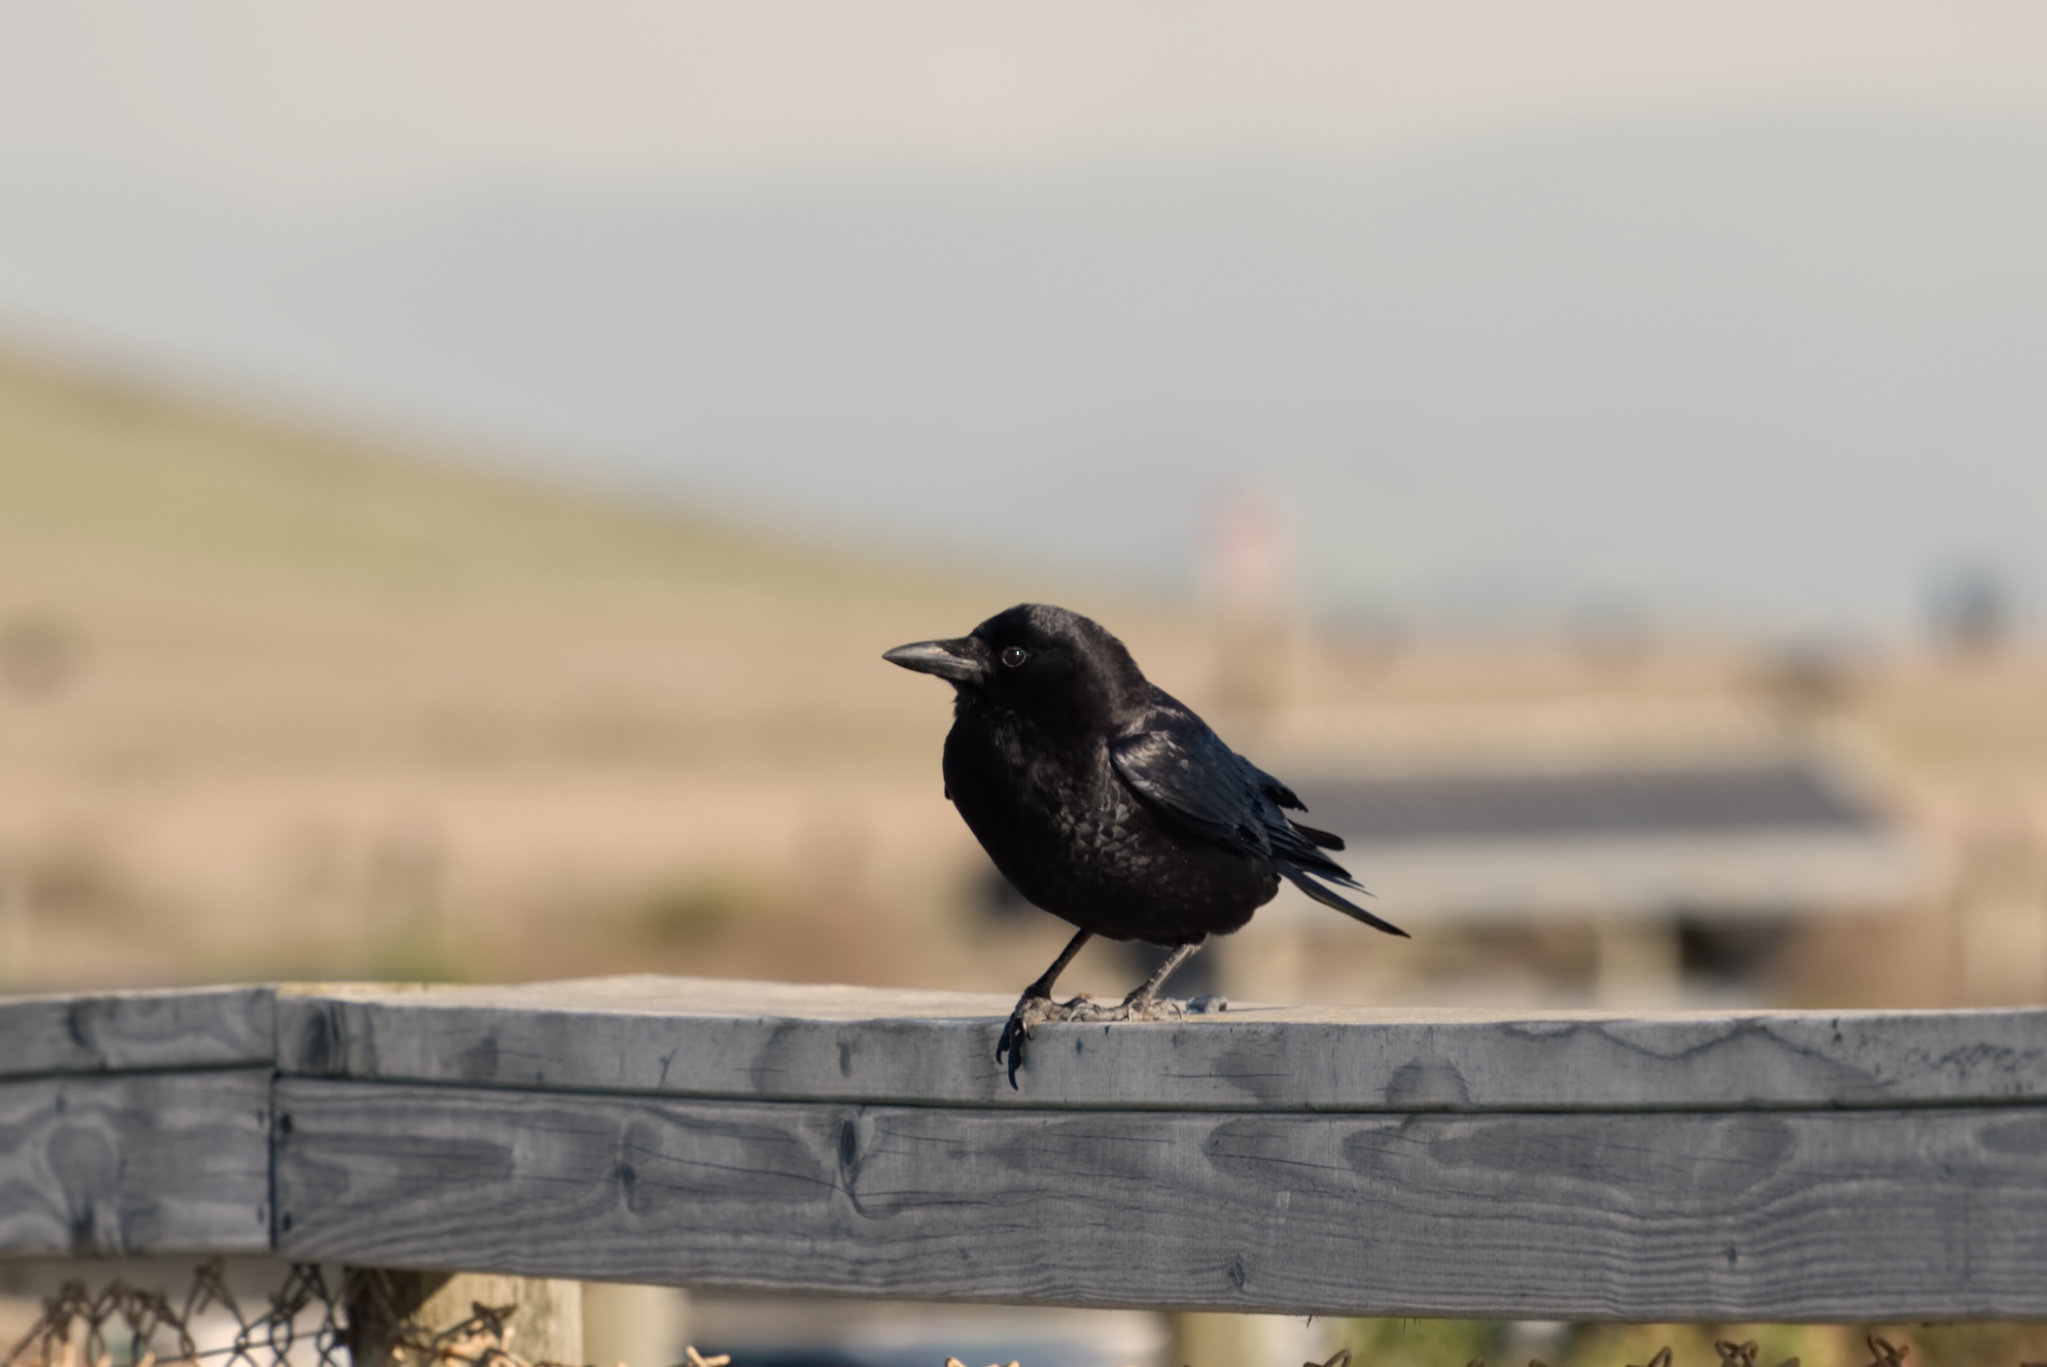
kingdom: Animalia
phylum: Chordata
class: Aves
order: Passeriformes
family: Corvidae
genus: Corvus
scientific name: Corvus brachyrhynchos
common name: American crow
